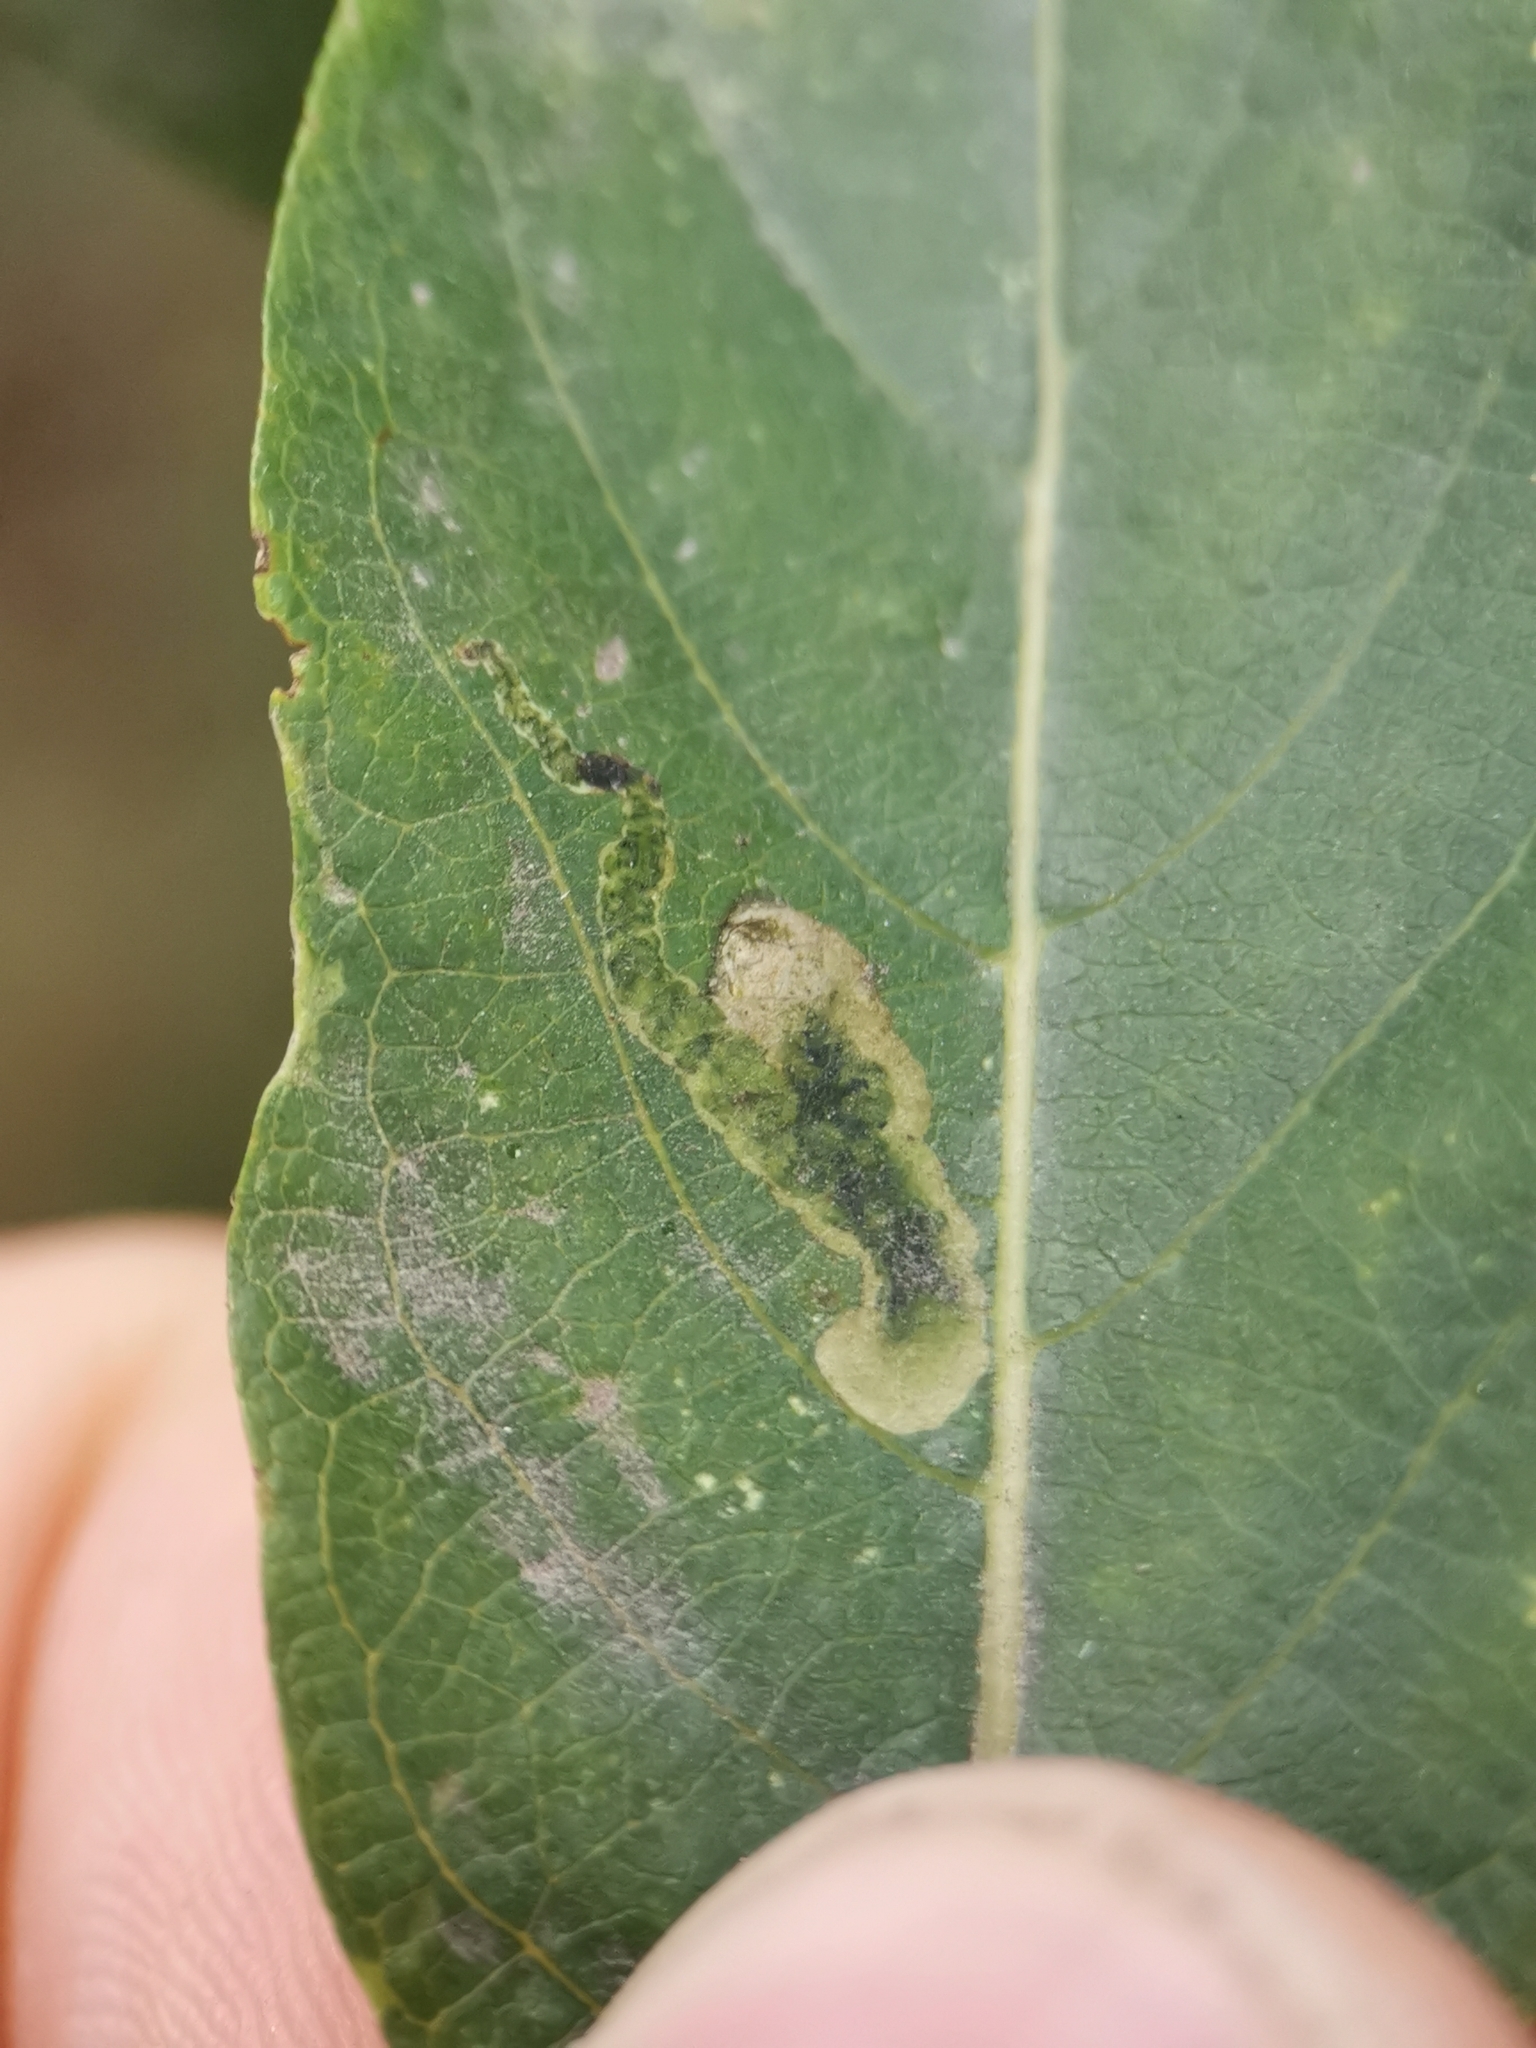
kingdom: Animalia
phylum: Arthropoda
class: Insecta
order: Diptera
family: Agromyzidae
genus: Aulagromyza
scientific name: Aulagromyza luteoscutellata
